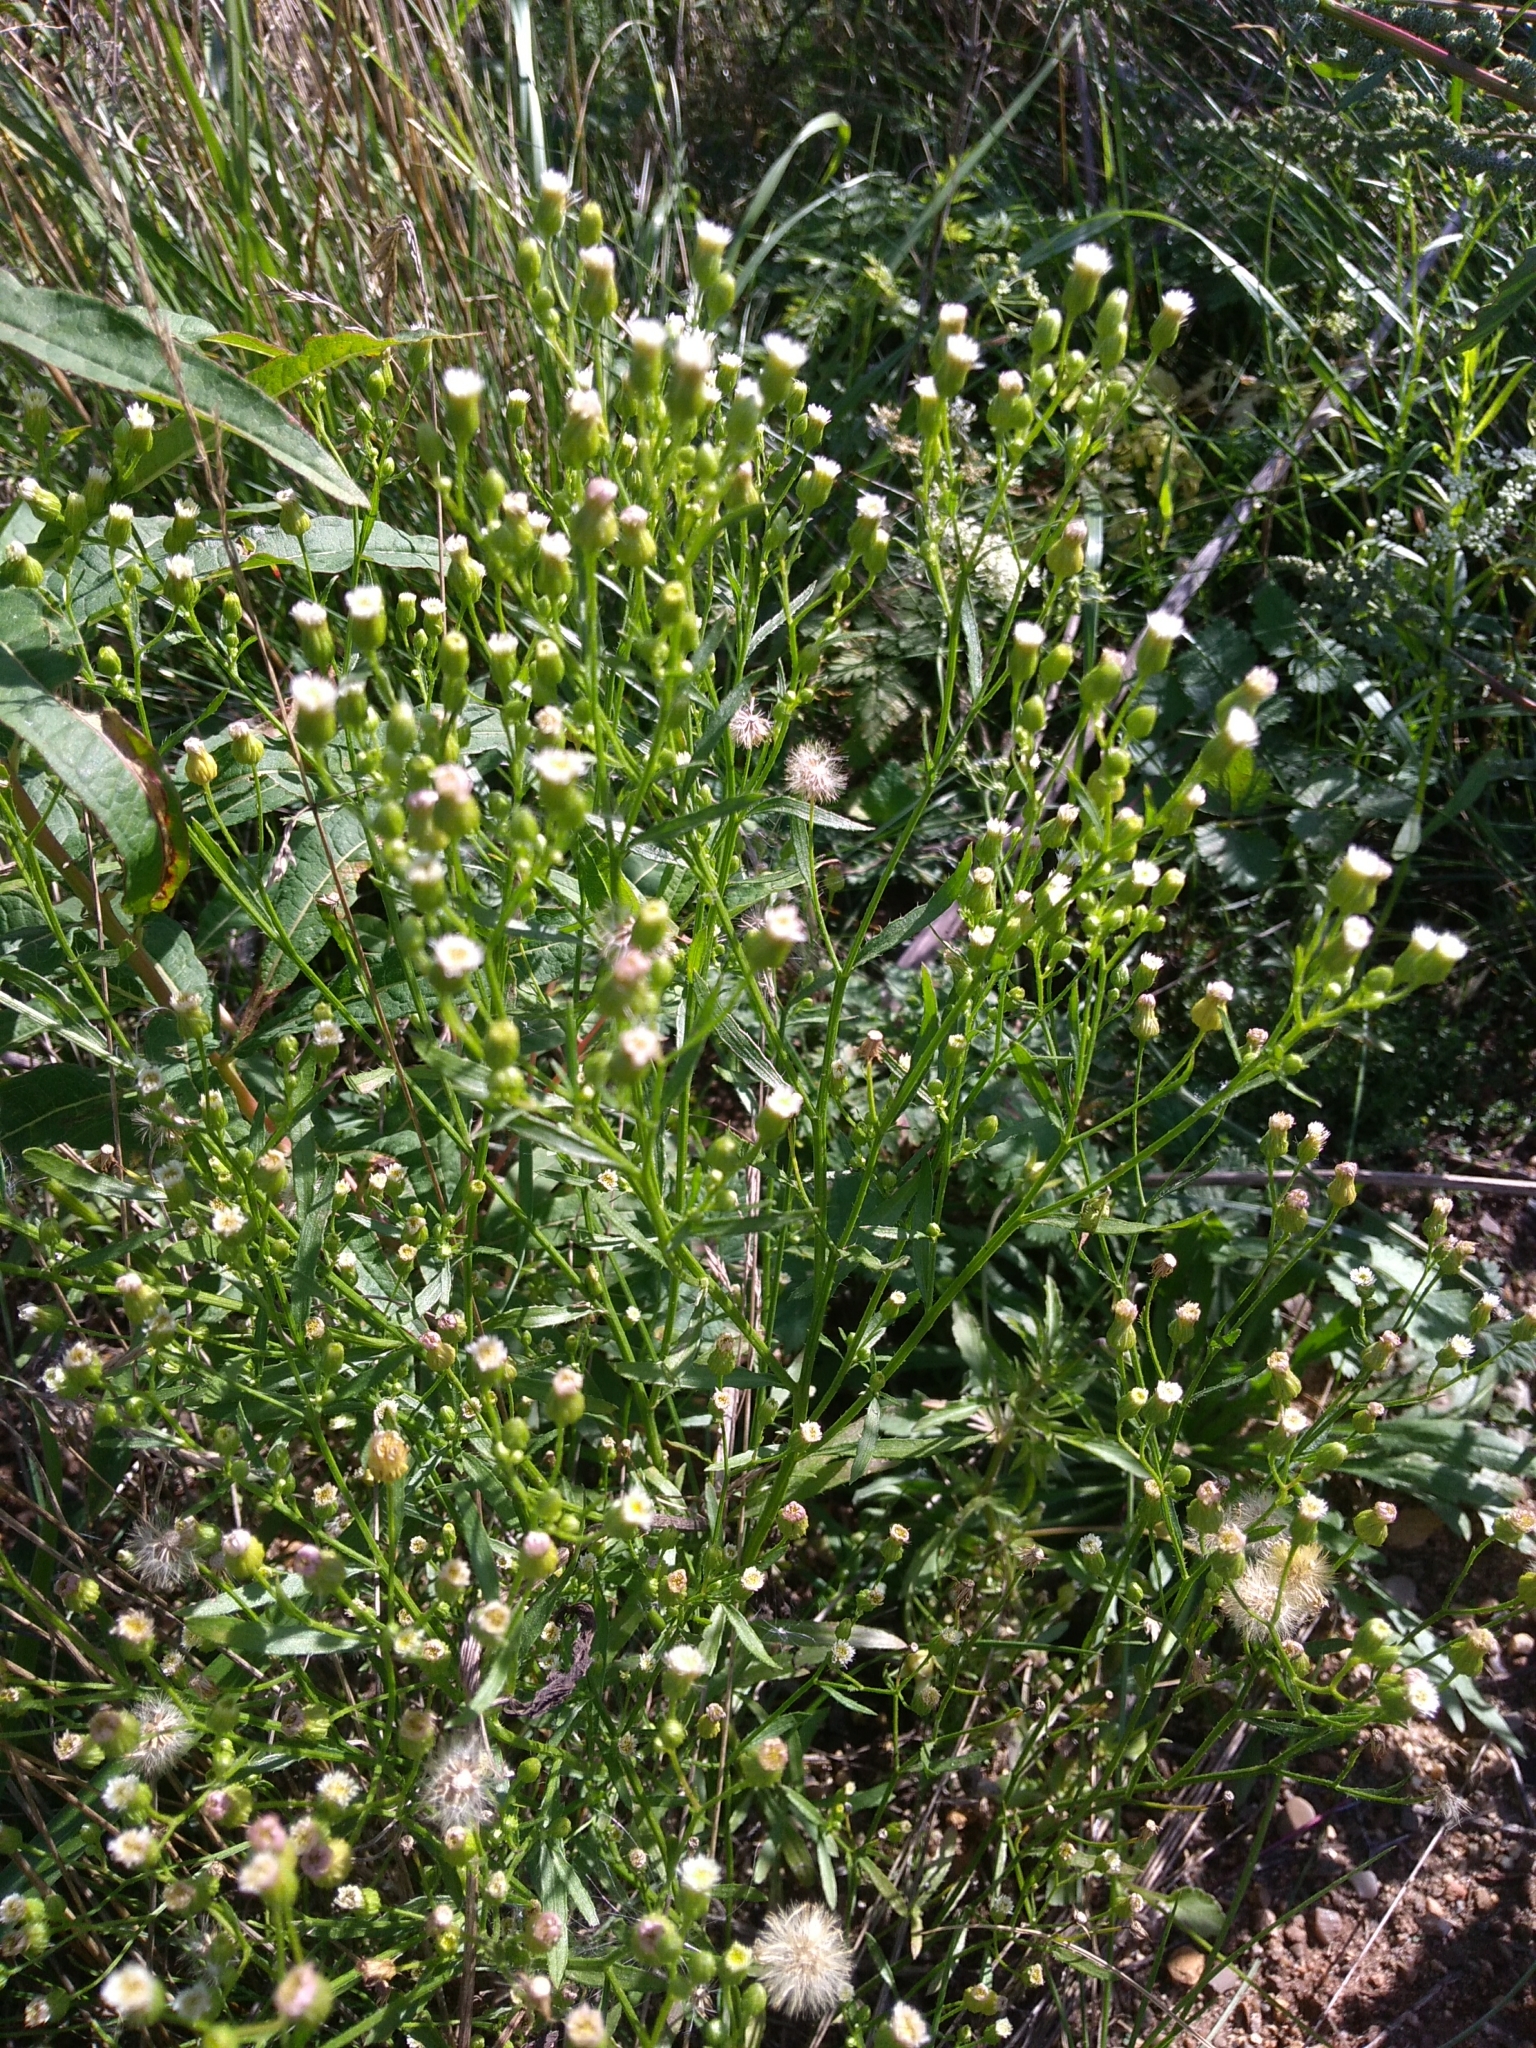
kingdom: Plantae
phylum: Tracheophyta
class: Magnoliopsida
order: Asterales
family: Asteraceae
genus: Erigeron
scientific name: Erigeron canadensis
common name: Canadian fleabane
